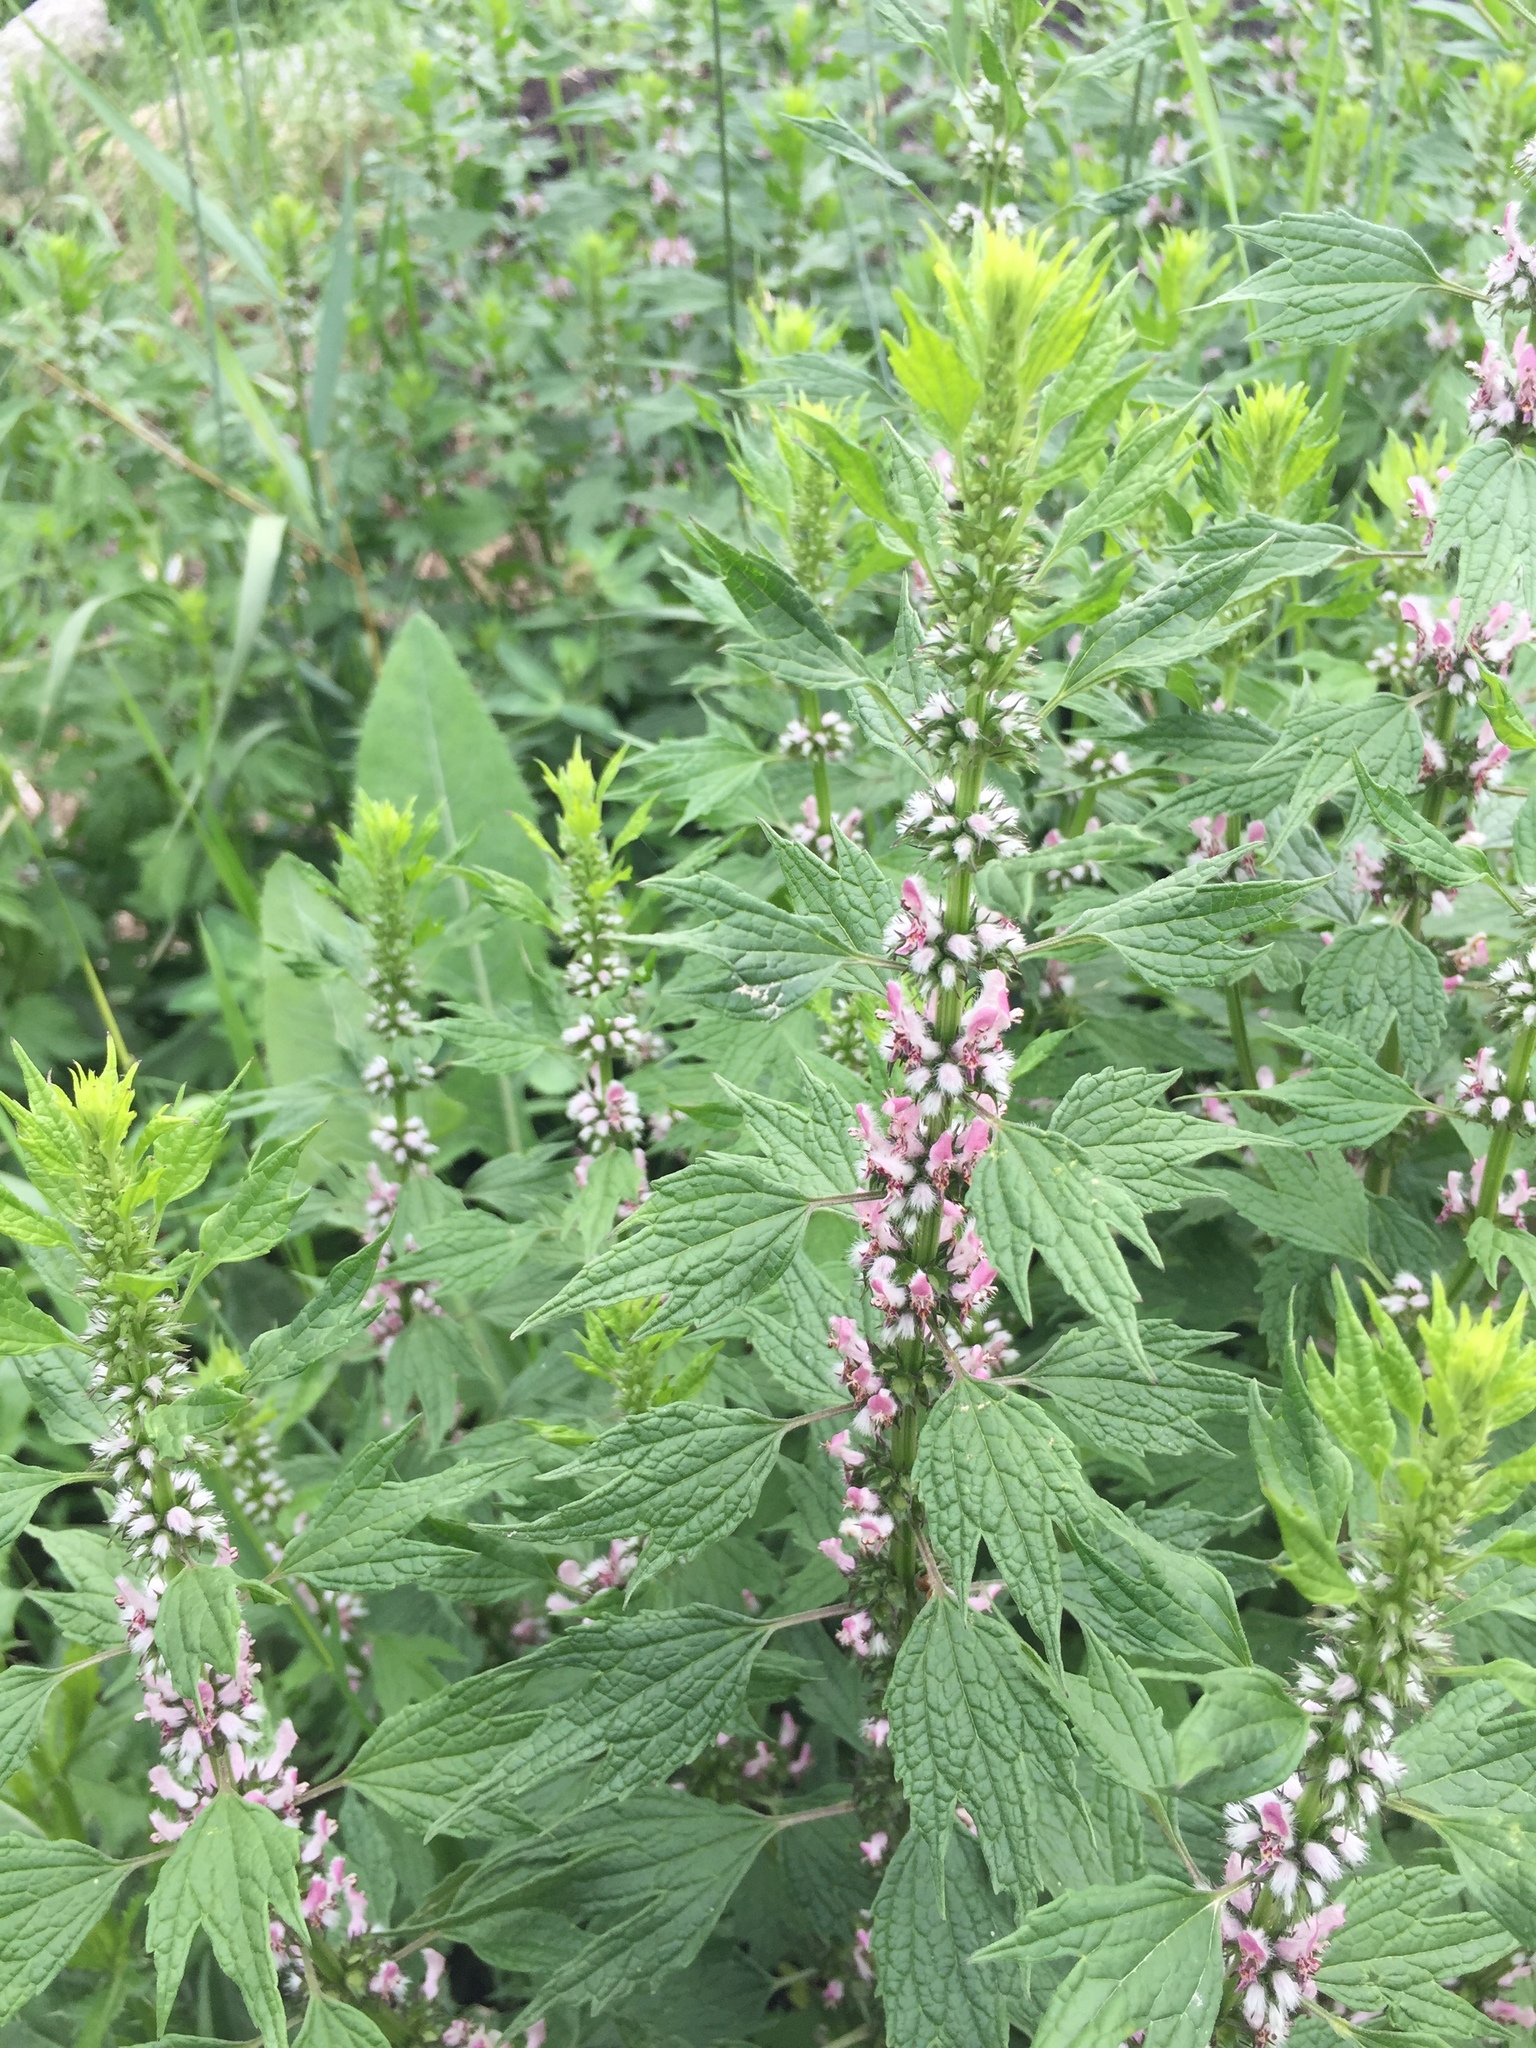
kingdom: Plantae
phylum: Tracheophyta
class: Magnoliopsida
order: Lamiales
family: Lamiaceae
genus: Leonurus
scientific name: Leonurus cardiaca
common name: Motherwort
